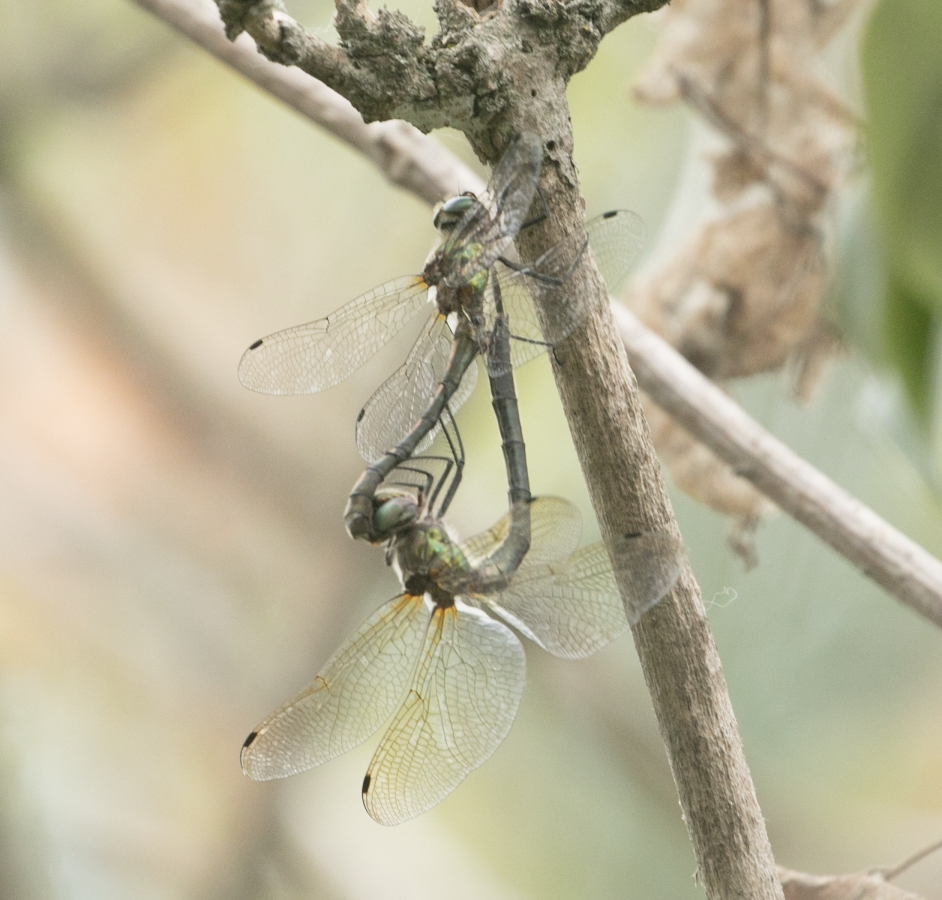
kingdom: Animalia
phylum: Arthropoda
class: Insecta
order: Odonata
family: Corduliidae
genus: Oxygastra
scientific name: Oxygastra curtisii
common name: Orange-spotted emerald
